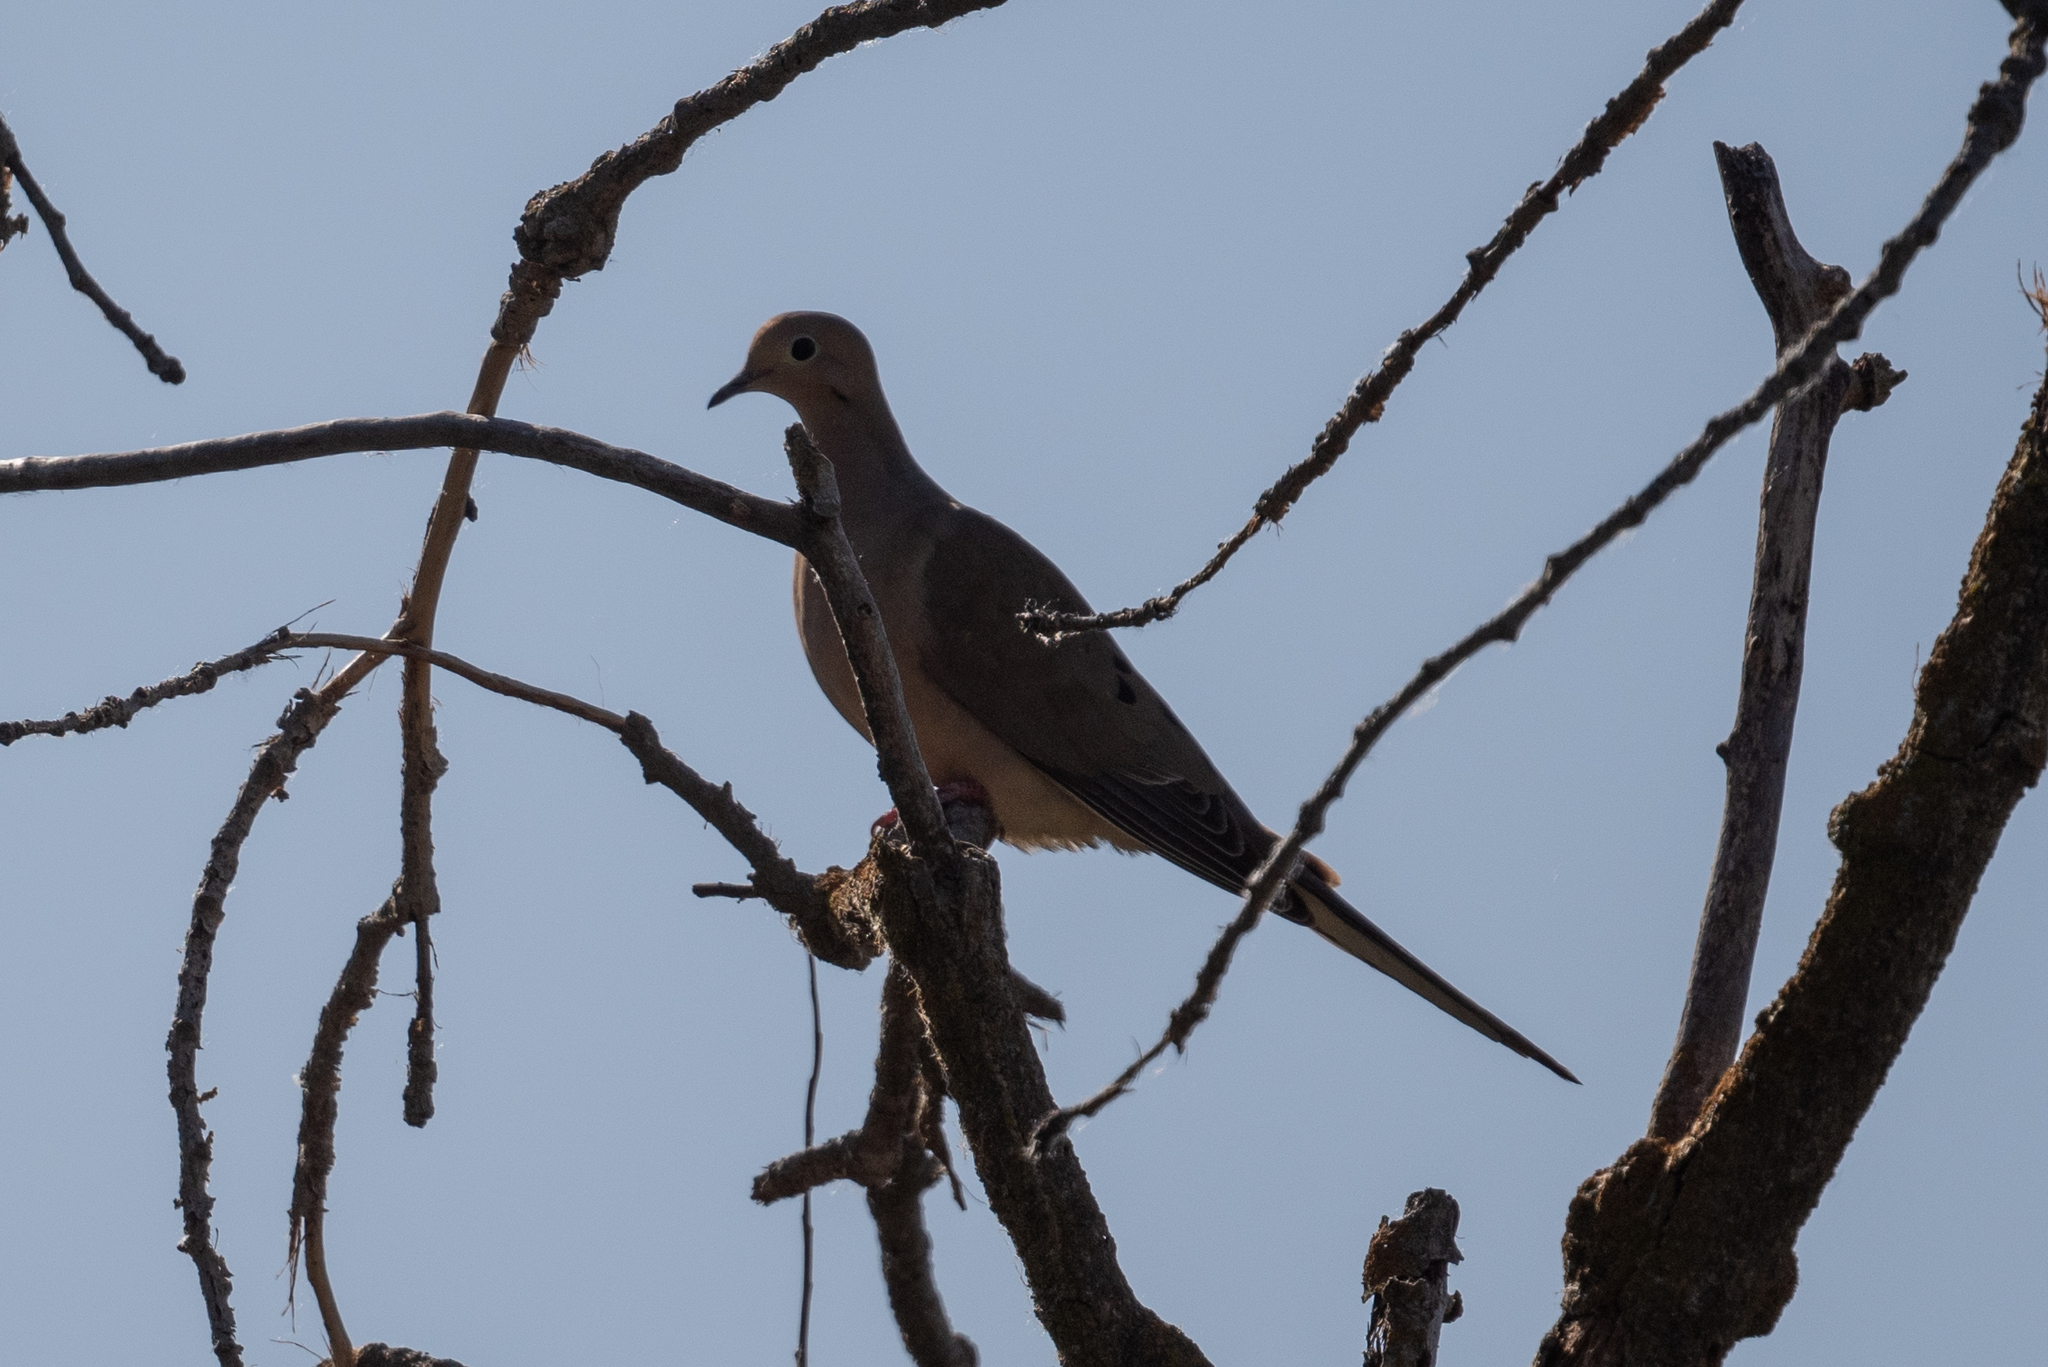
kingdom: Animalia
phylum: Chordata
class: Aves
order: Columbiformes
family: Columbidae
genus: Zenaida
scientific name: Zenaida macroura
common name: Mourning dove
